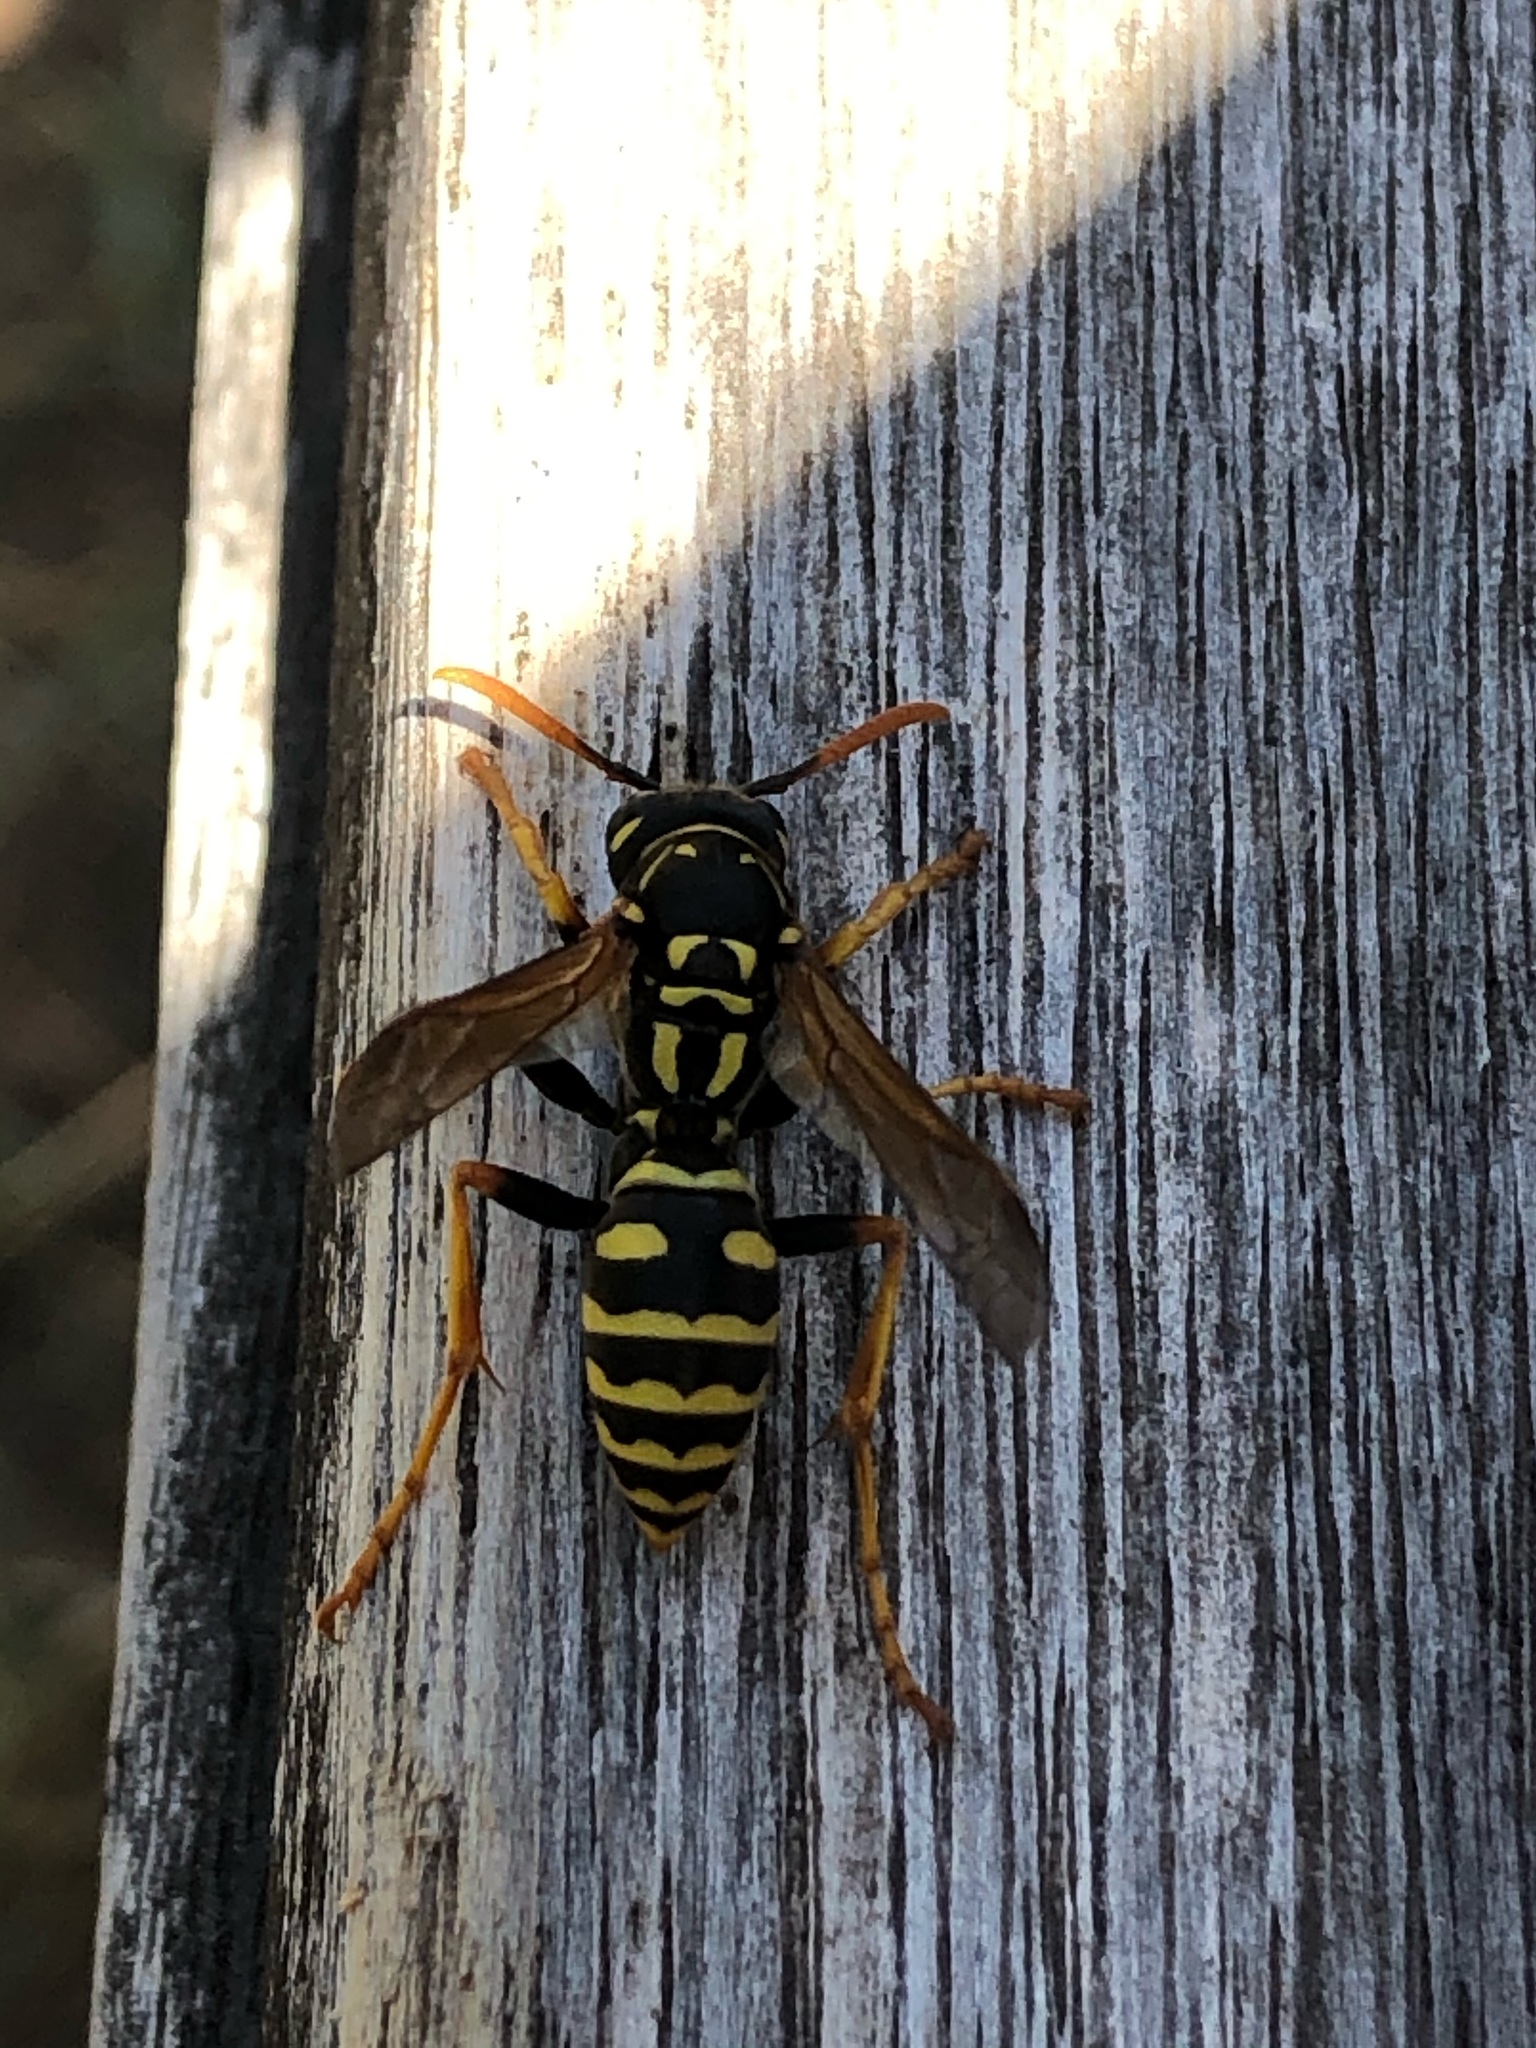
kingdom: Animalia
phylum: Arthropoda
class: Insecta
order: Hymenoptera
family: Eumenidae
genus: Polistes
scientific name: Polistes dominula
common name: Paper wasp
